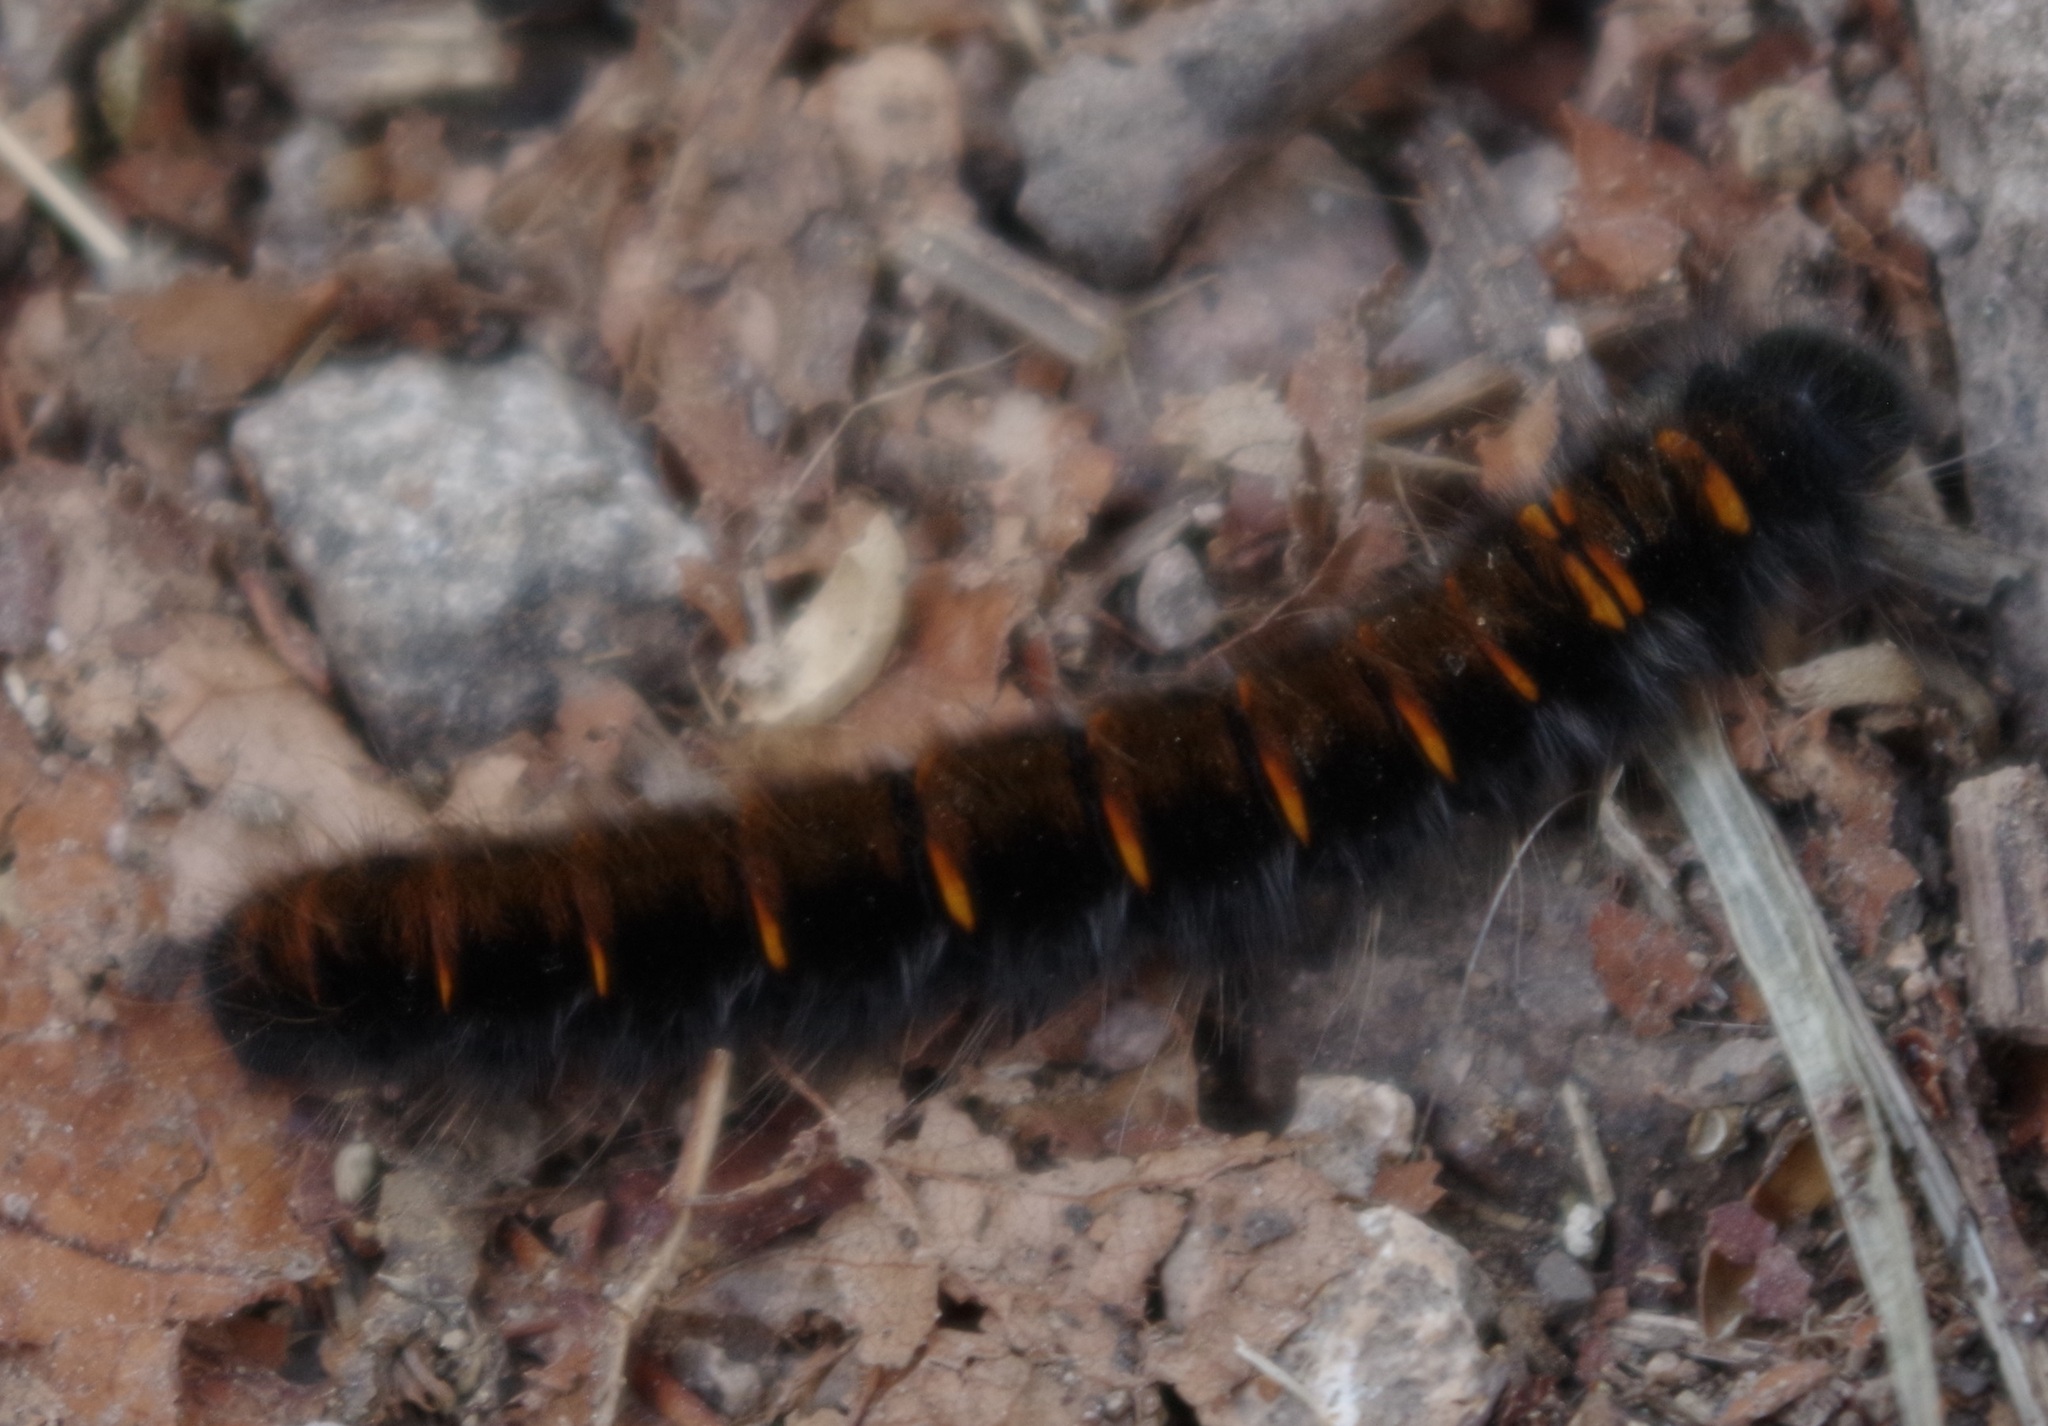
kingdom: Animalia
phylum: Arthropoda
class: Insecta
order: Lepidoptera
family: Lasiocampidae
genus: Macrothylacia
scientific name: Macrothylacia rubi
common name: Fox moth
